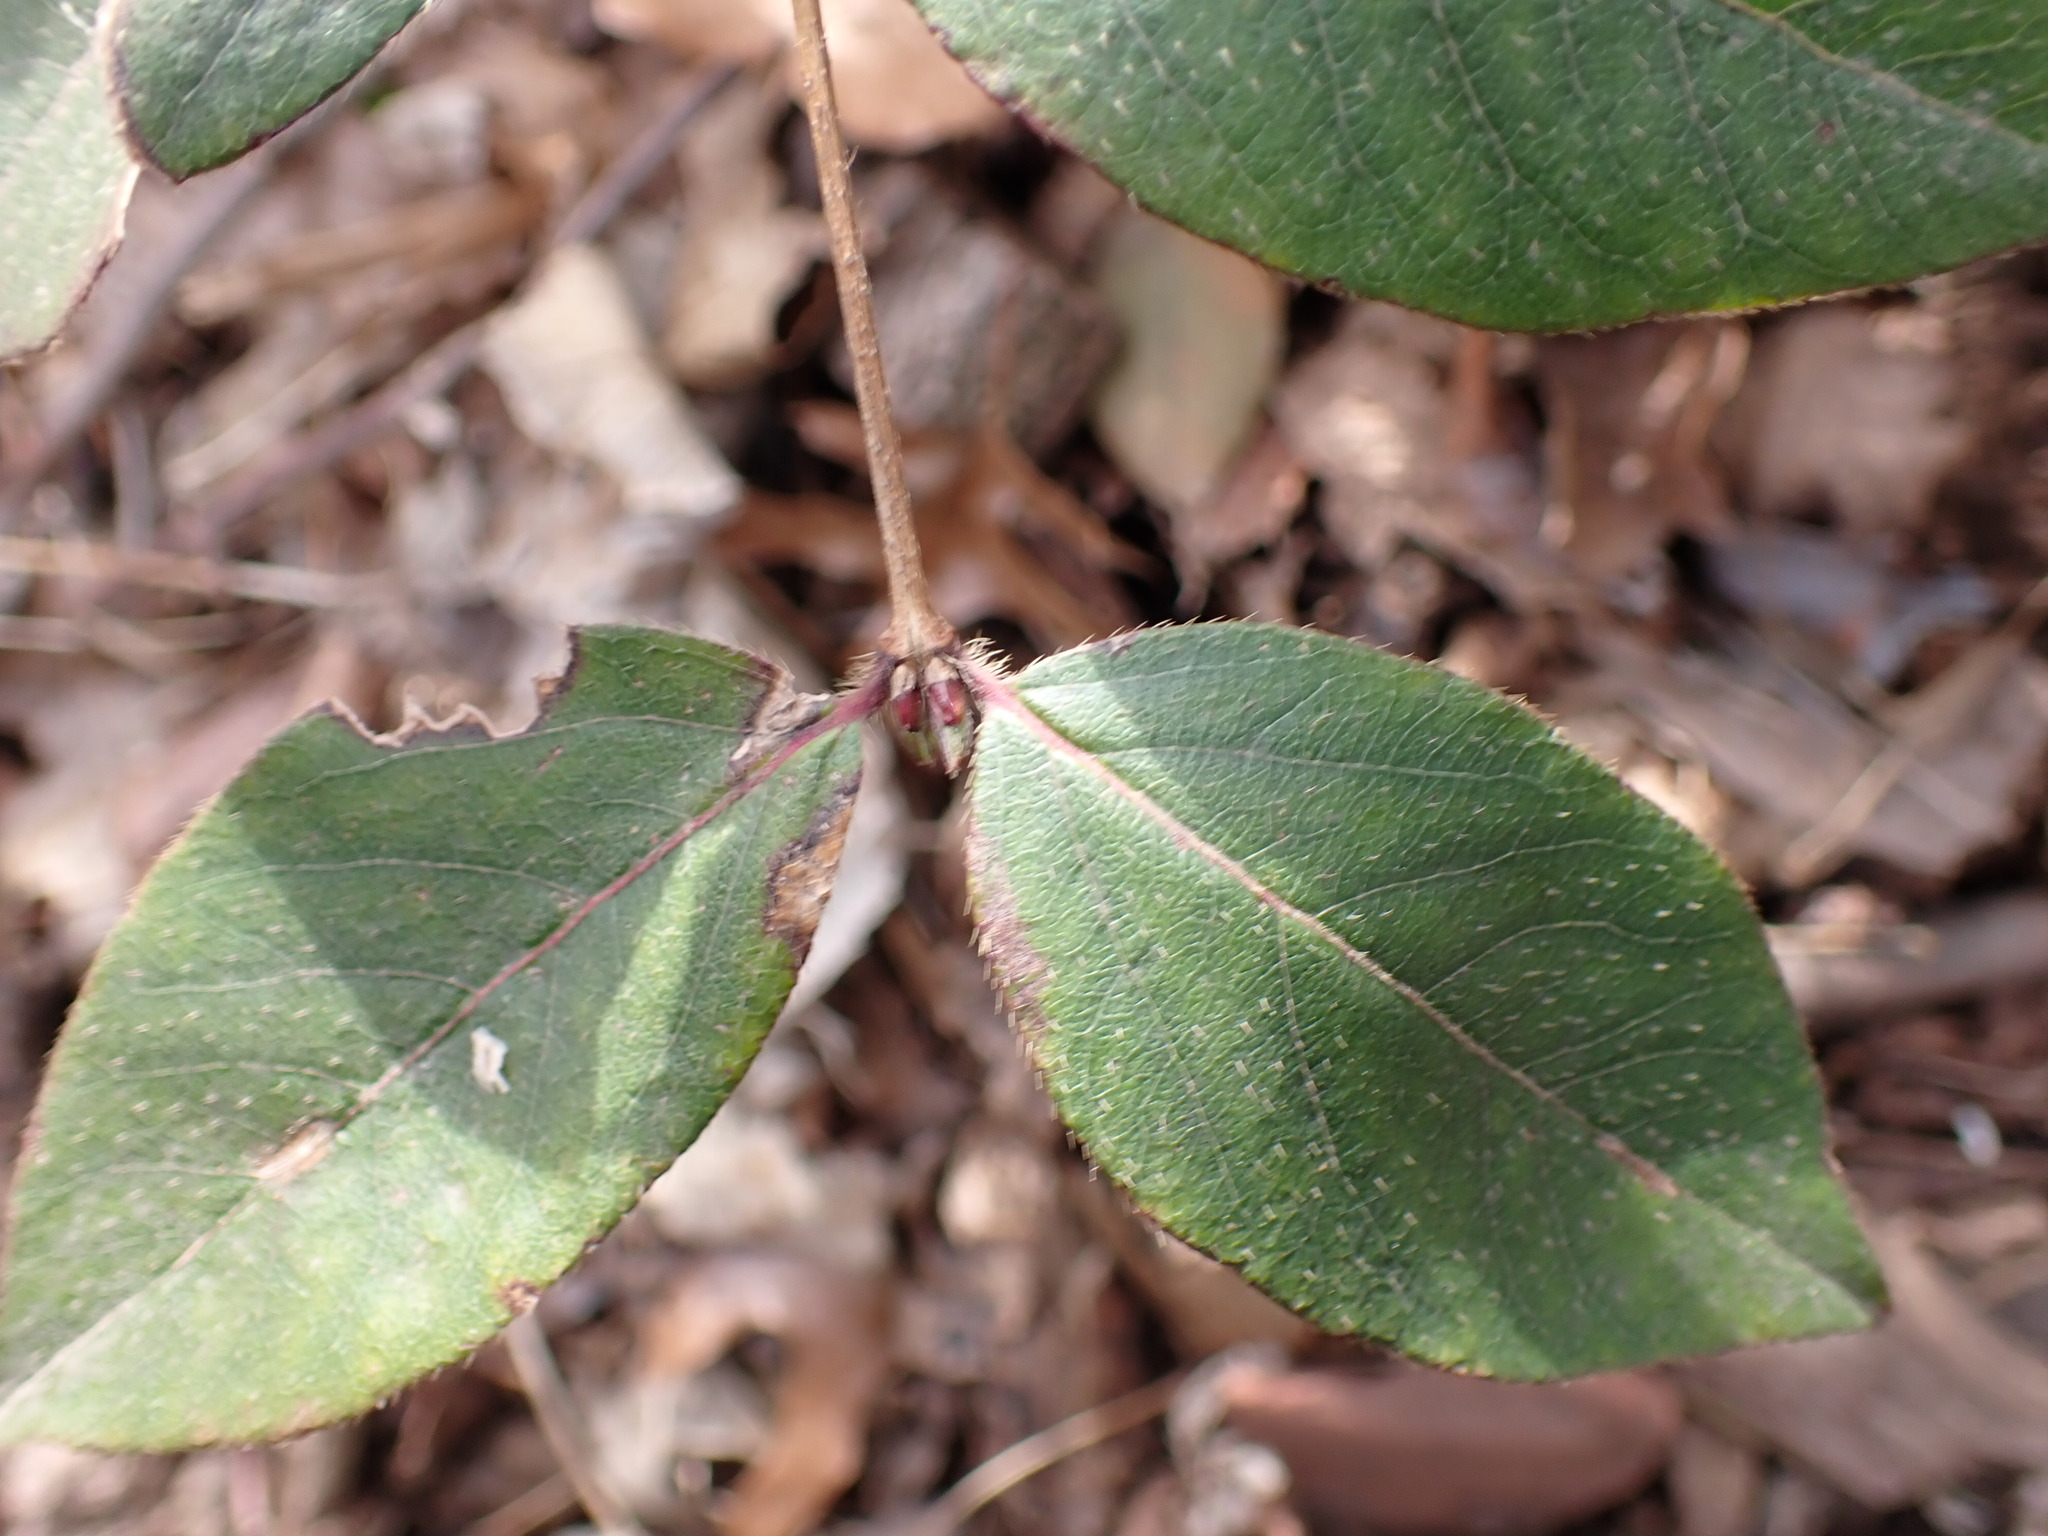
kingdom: Plantae
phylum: Tracheophyta
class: Magnoliopsida
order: Dipsacales
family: Caprifoliaceae
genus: Lonicera
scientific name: Lonicera fragrantissima
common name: Fragrant honeysuckle
